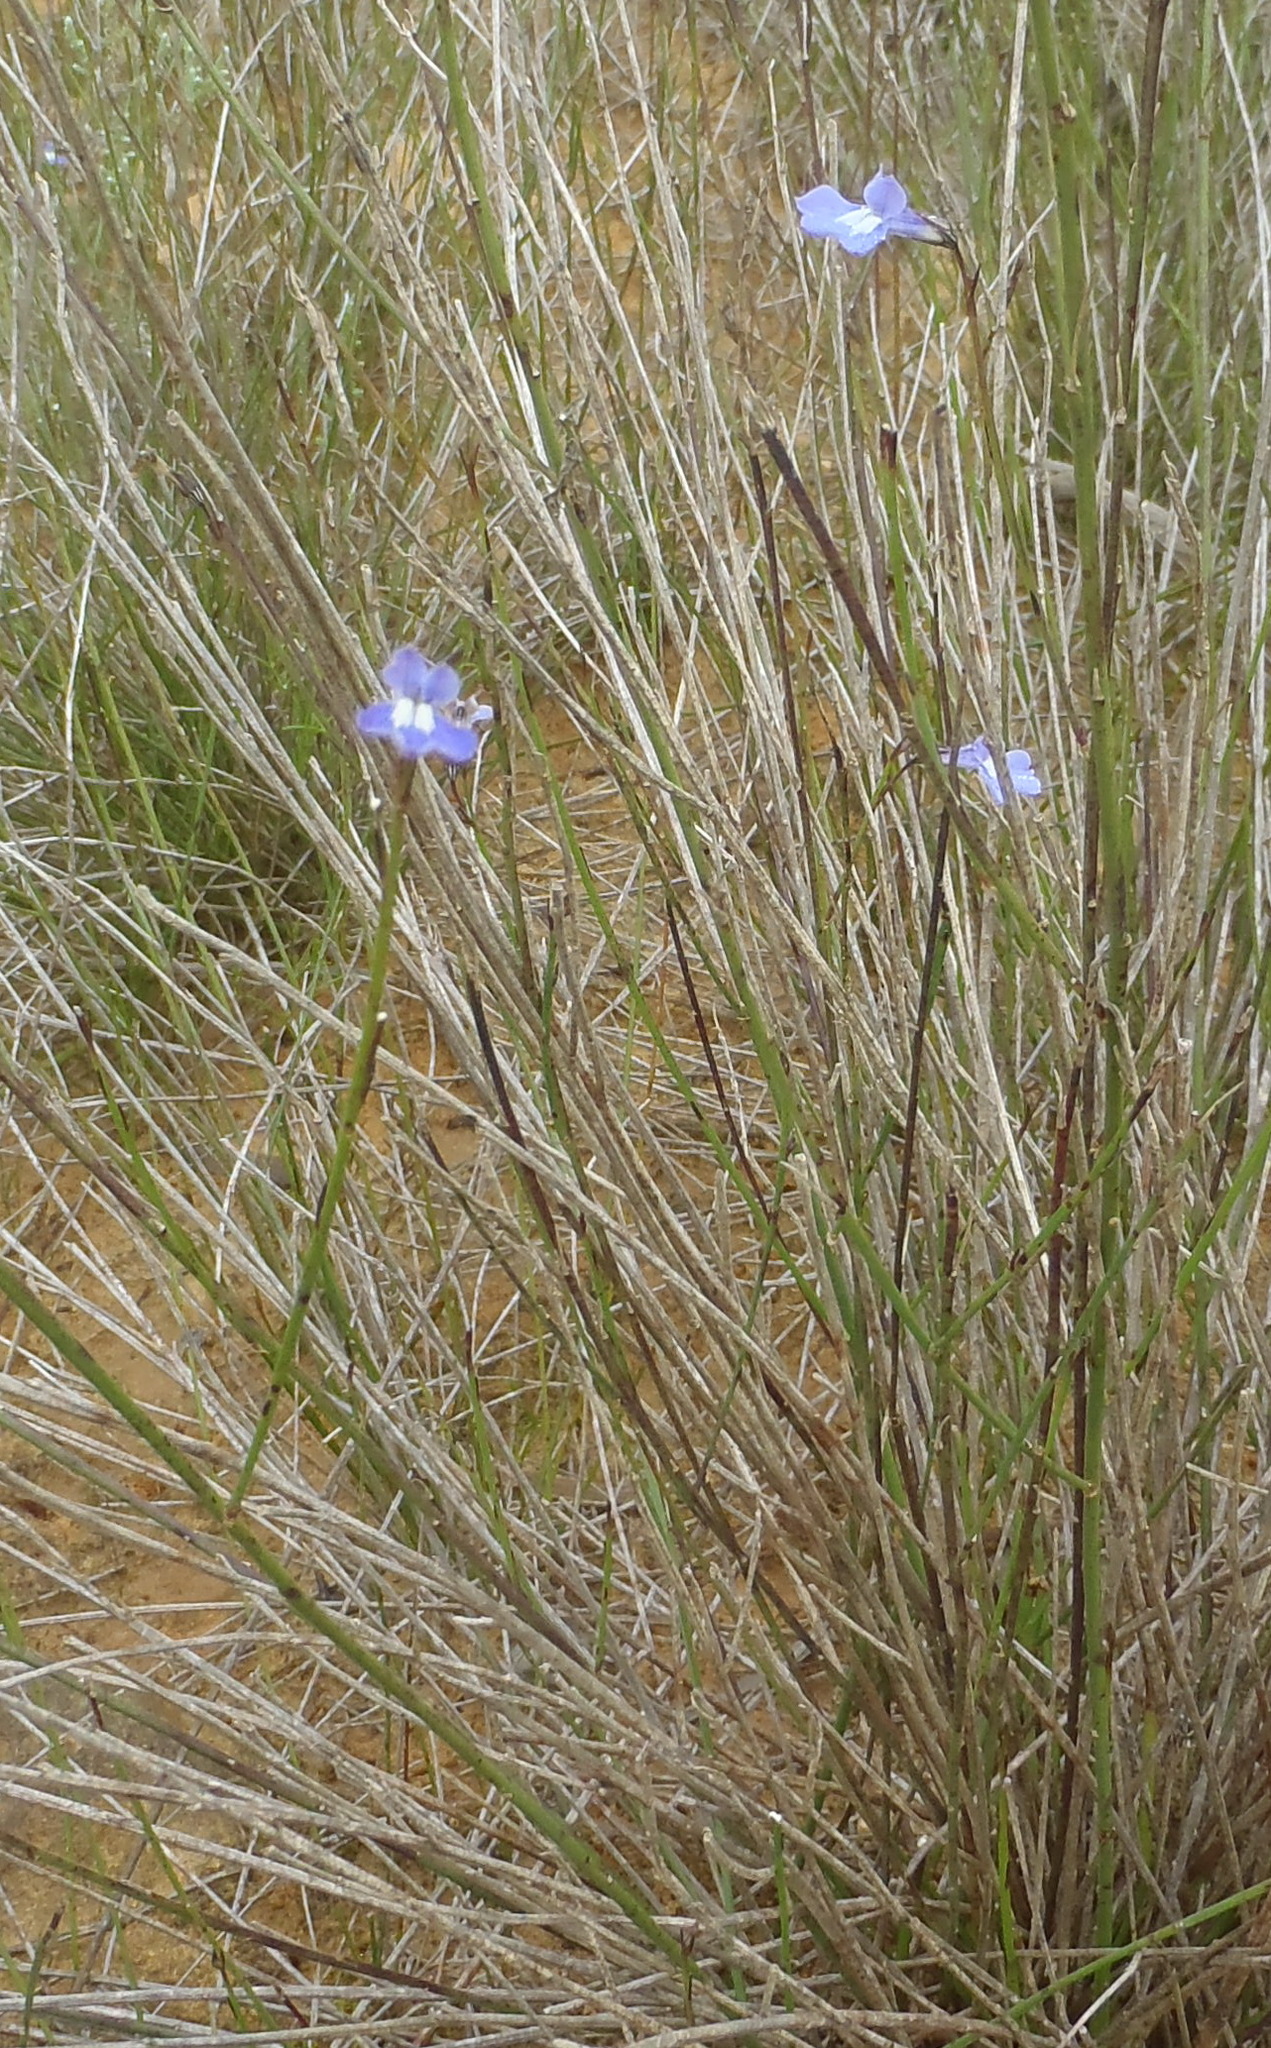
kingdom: Plantae
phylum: Tracheophyta
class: Magnoliopsida
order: Asterales
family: Campanulaceae
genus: Lobelia
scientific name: Lobelia capillifolia
